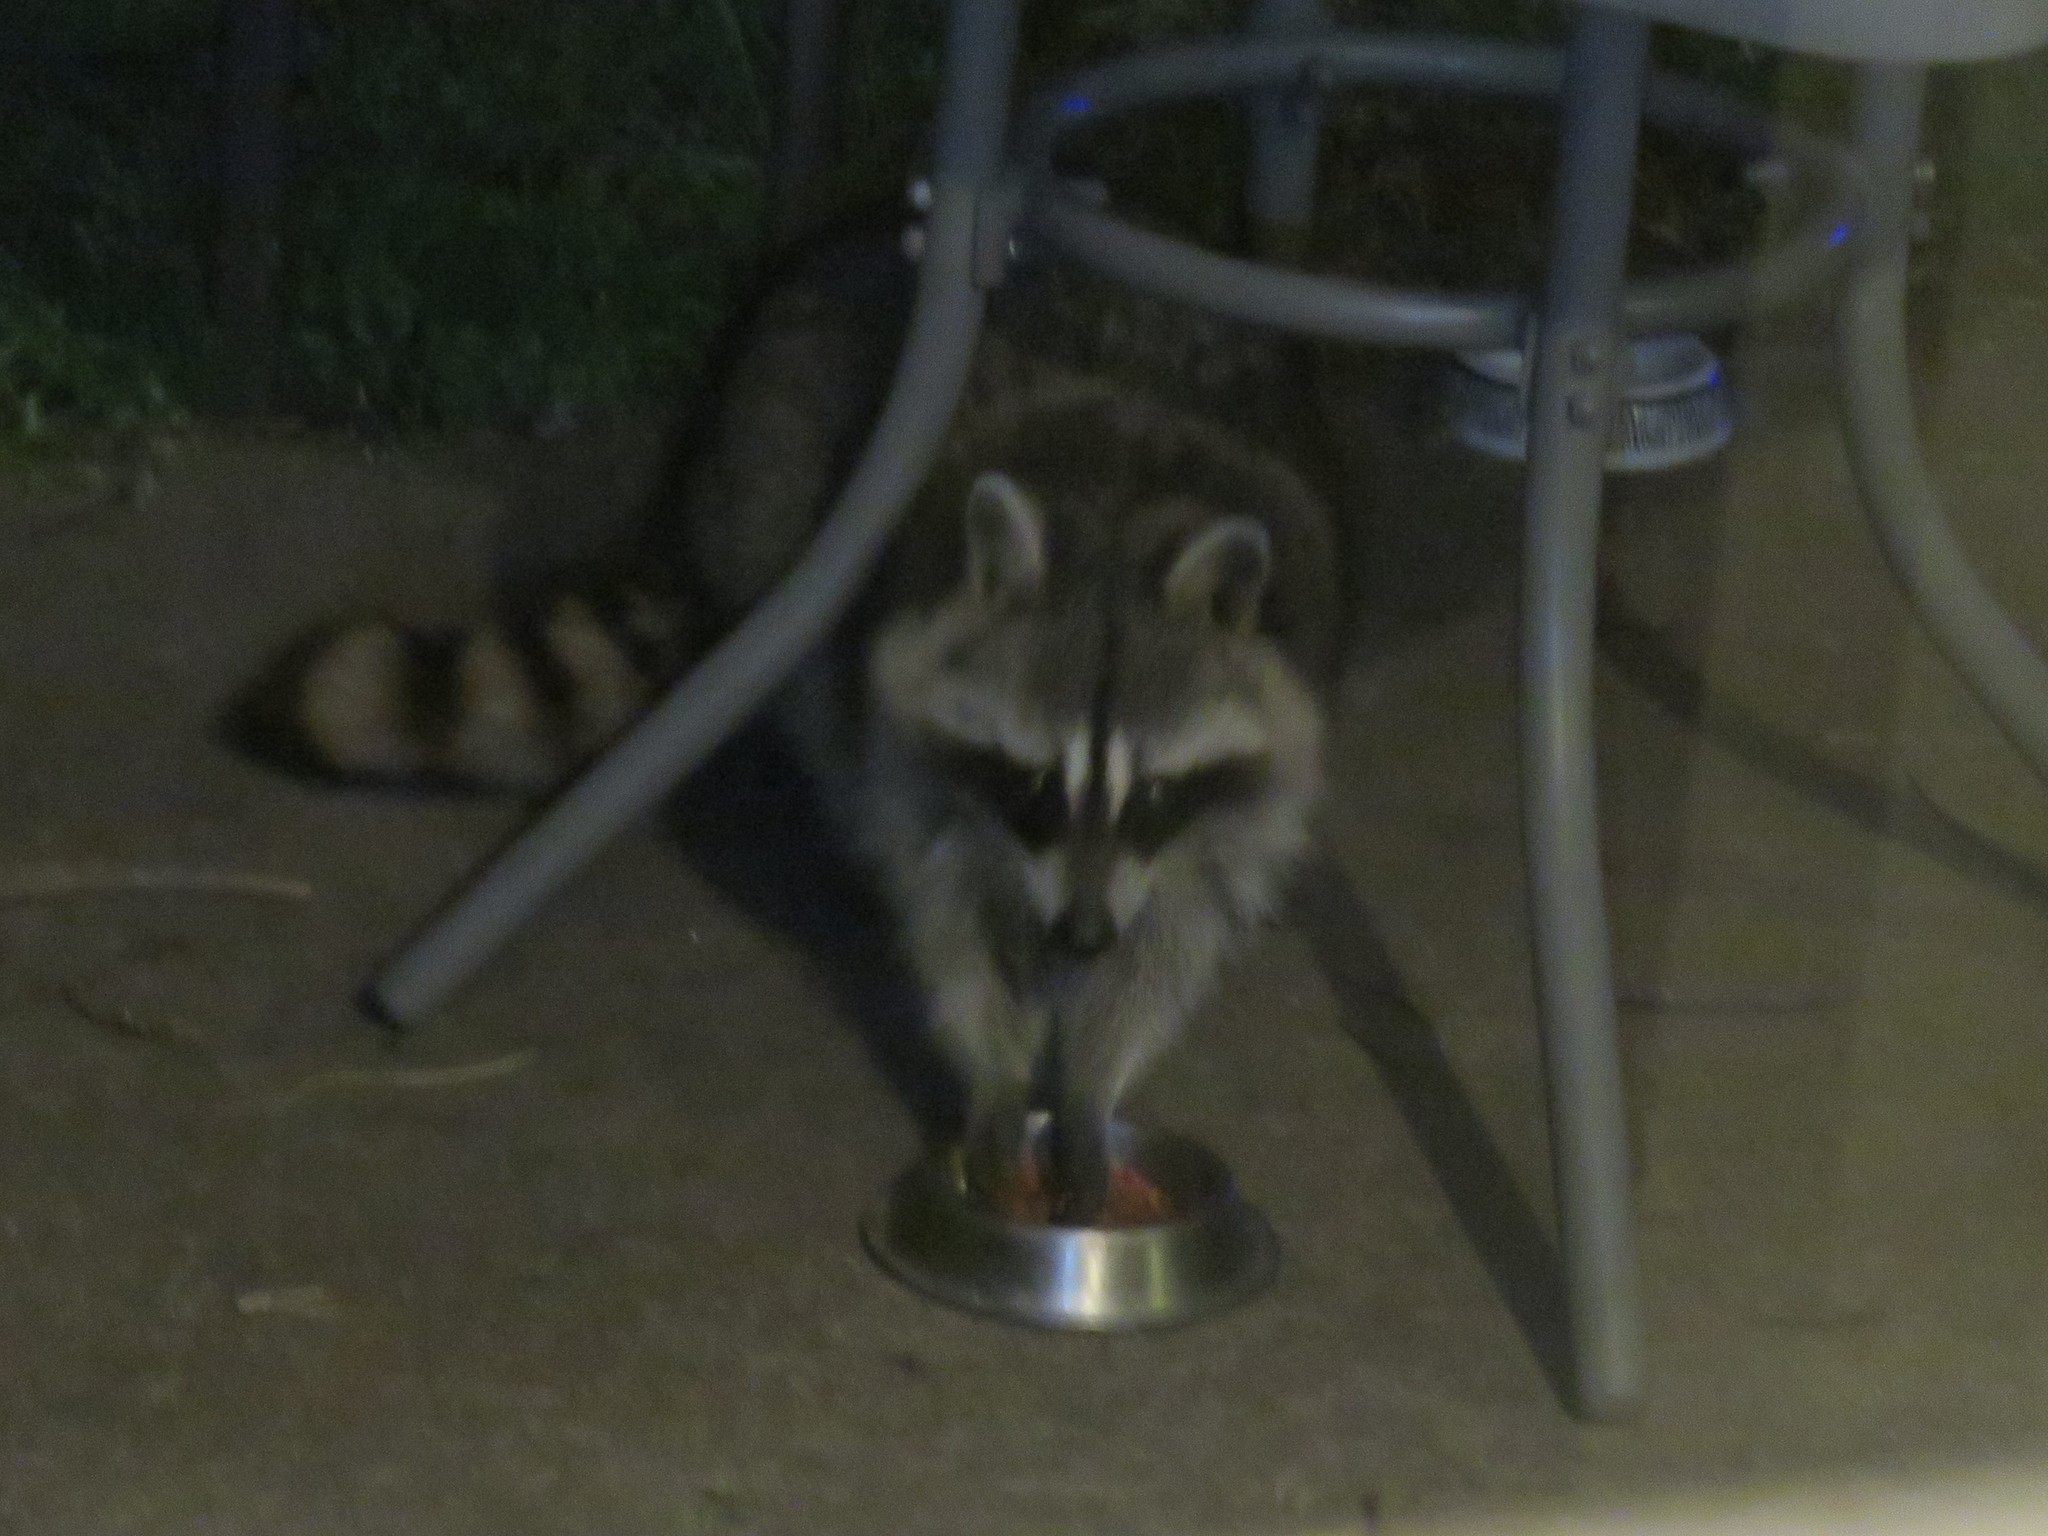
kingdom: Animalia
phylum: Chordata
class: Mammalia
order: Carnivora
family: Procyonidae
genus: Procyon
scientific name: Procyon lotor
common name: Raccoon
